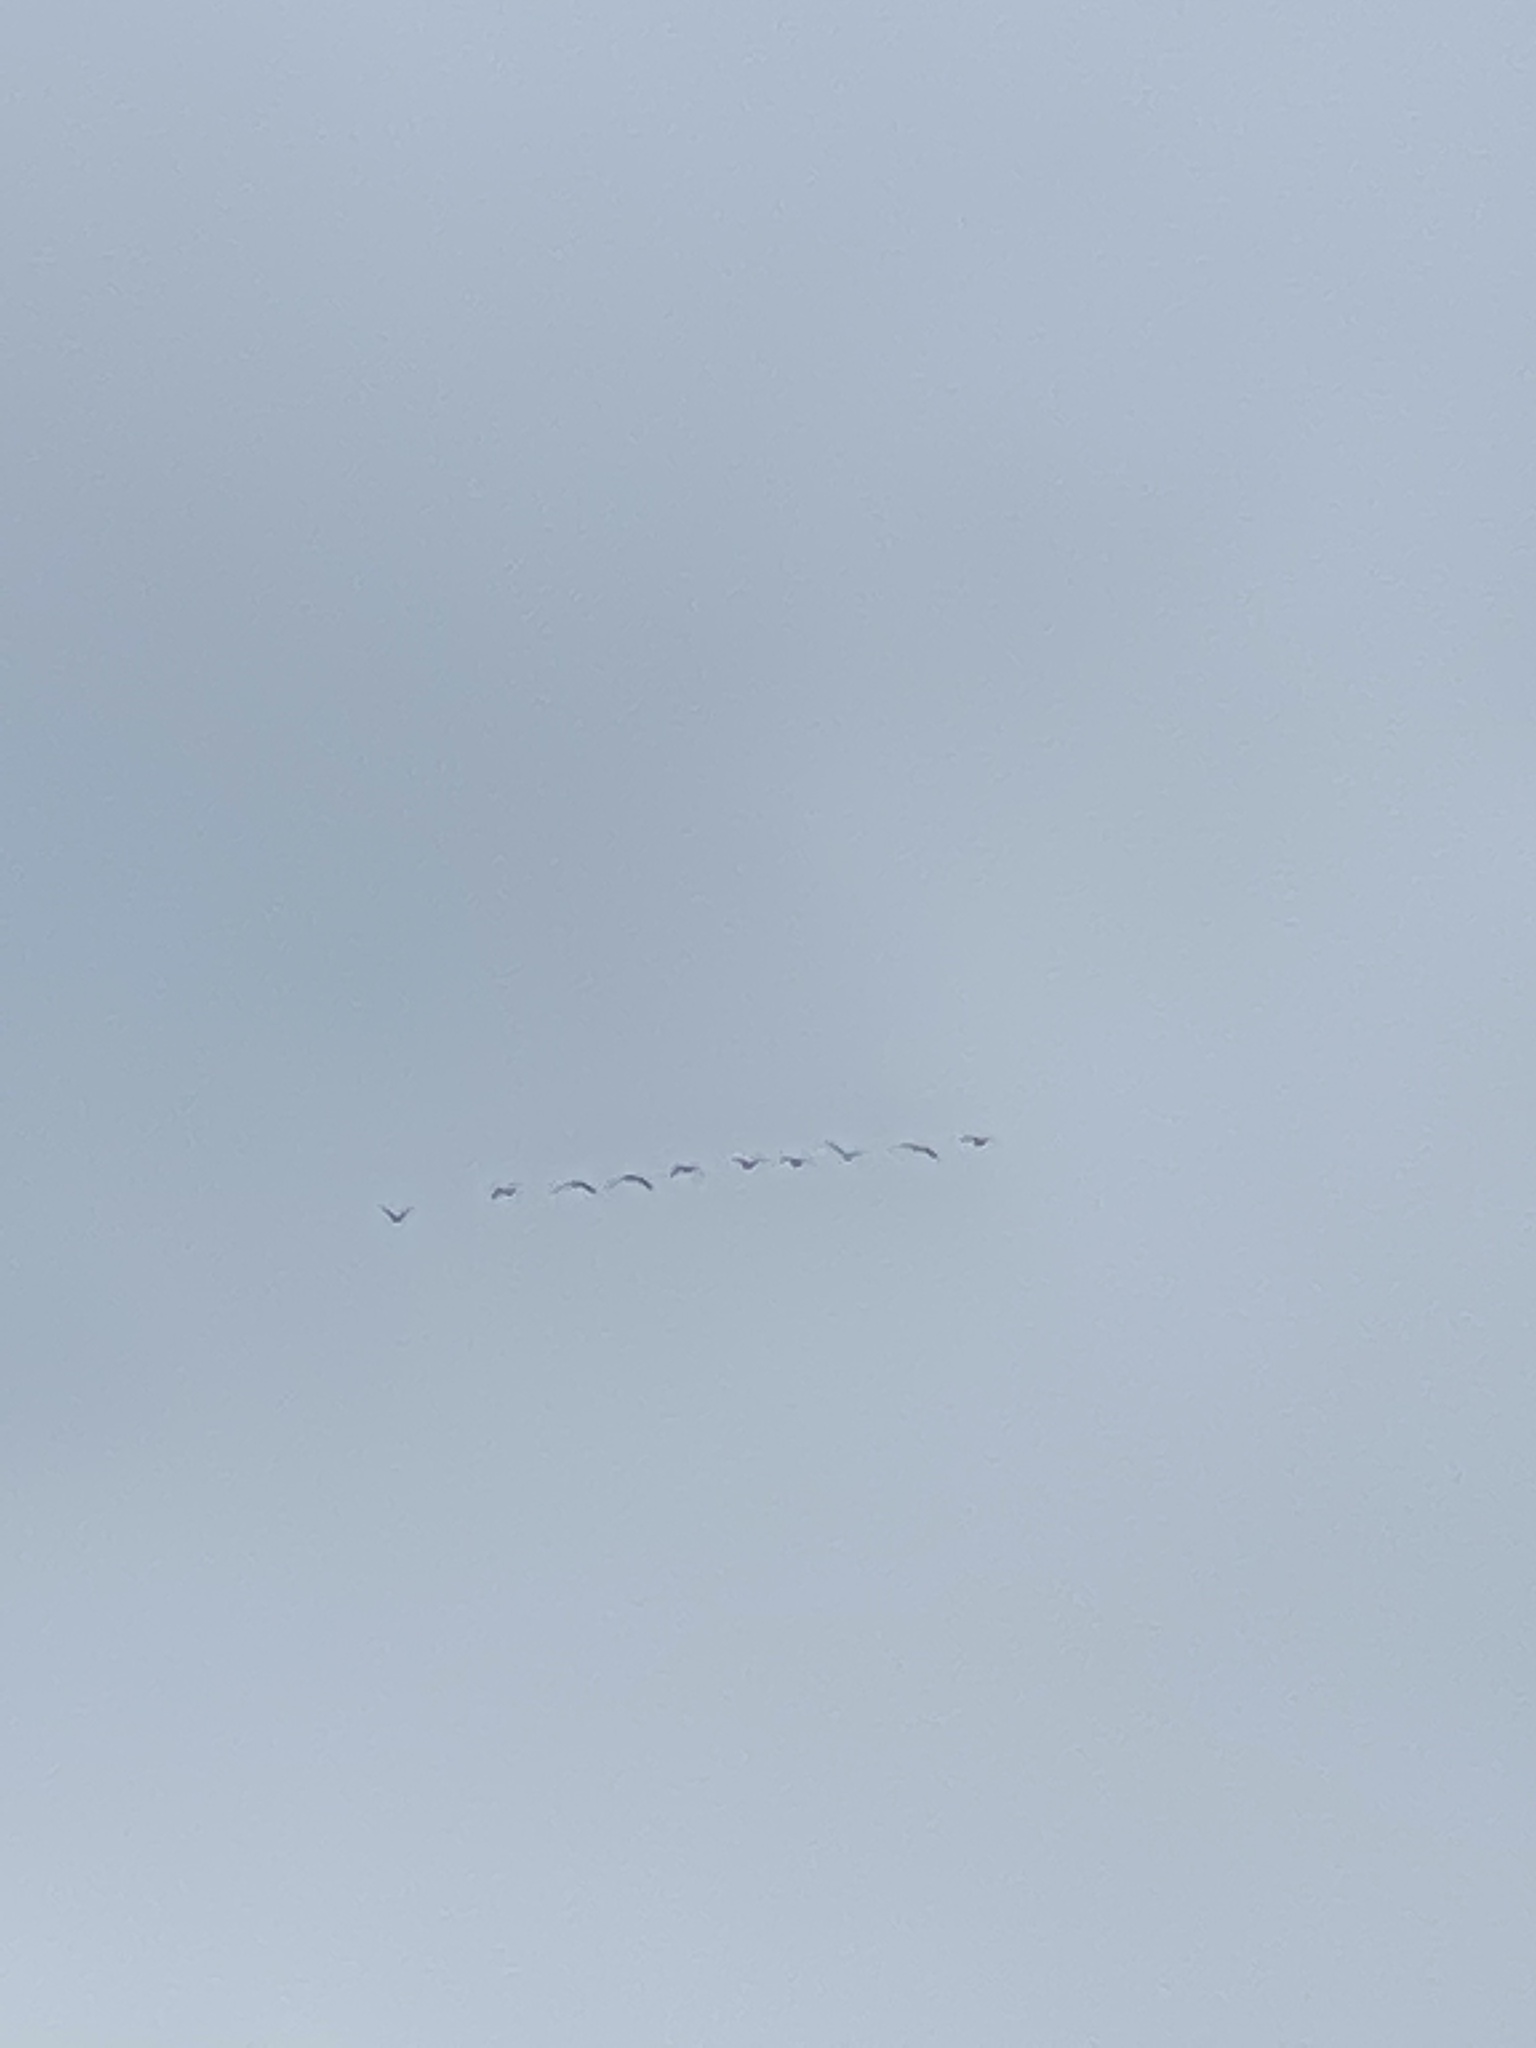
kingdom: Animalia
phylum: Chordata
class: Aves
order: Anseriformes
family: Anatidae
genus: Branta
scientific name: Branta canadensis
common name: Canada goose
